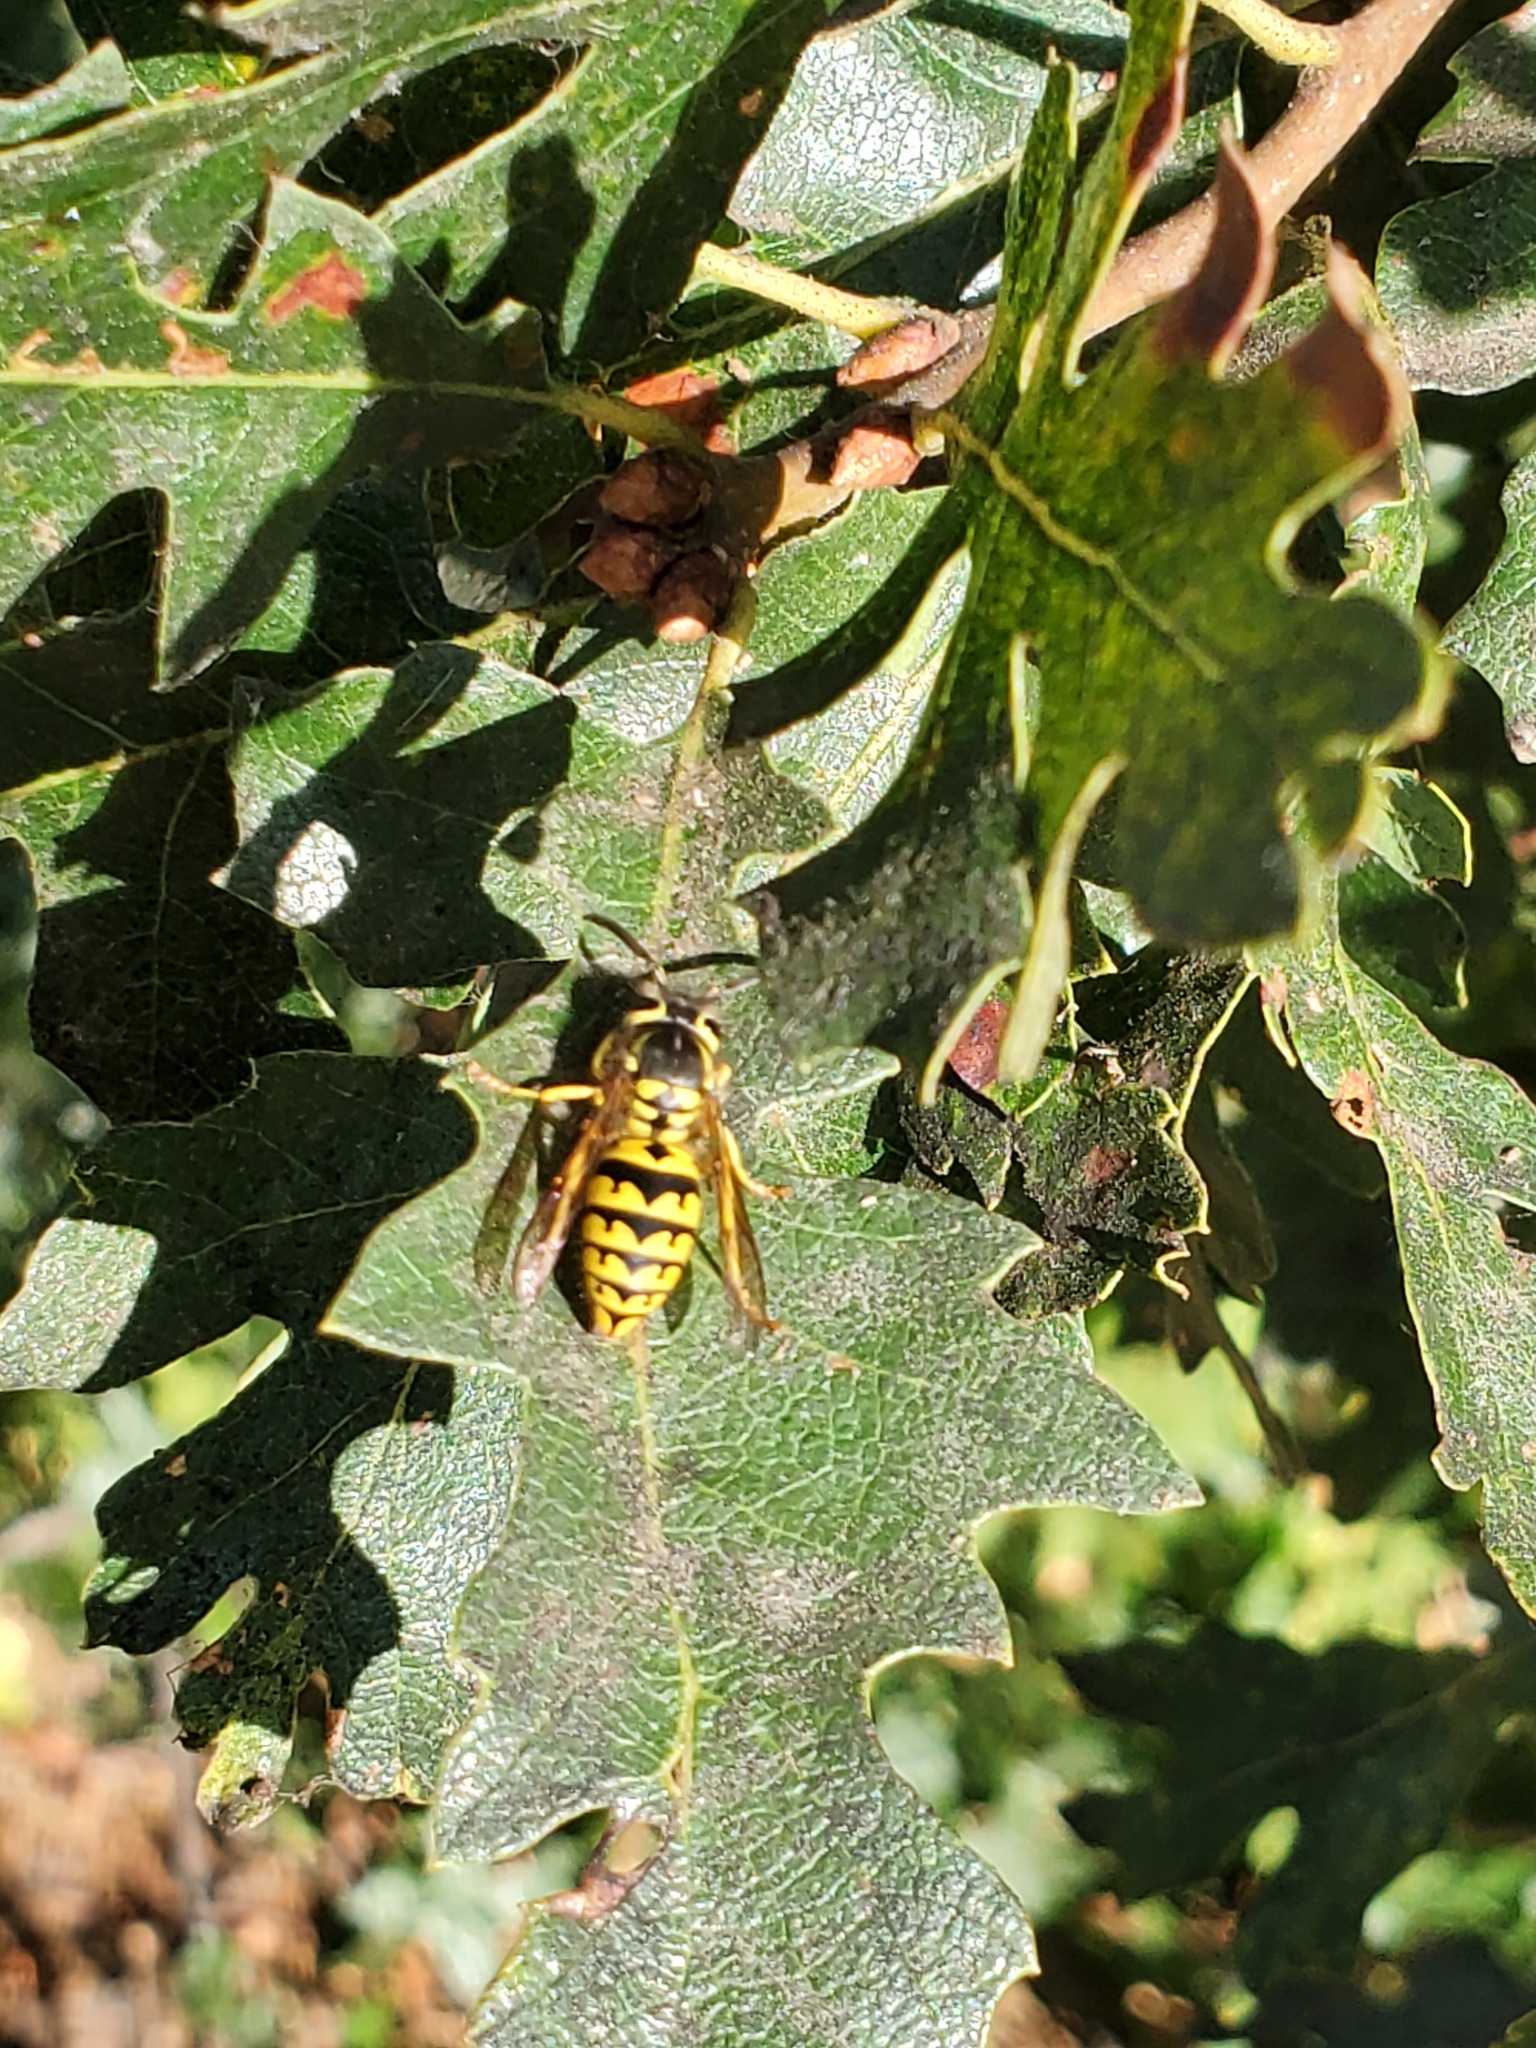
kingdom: Animalia
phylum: Arthropoda
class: Insecta
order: Hymenoptera
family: Vespidae
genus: Vespula
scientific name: Vespula pensylvanica
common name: Western yellowjacket
